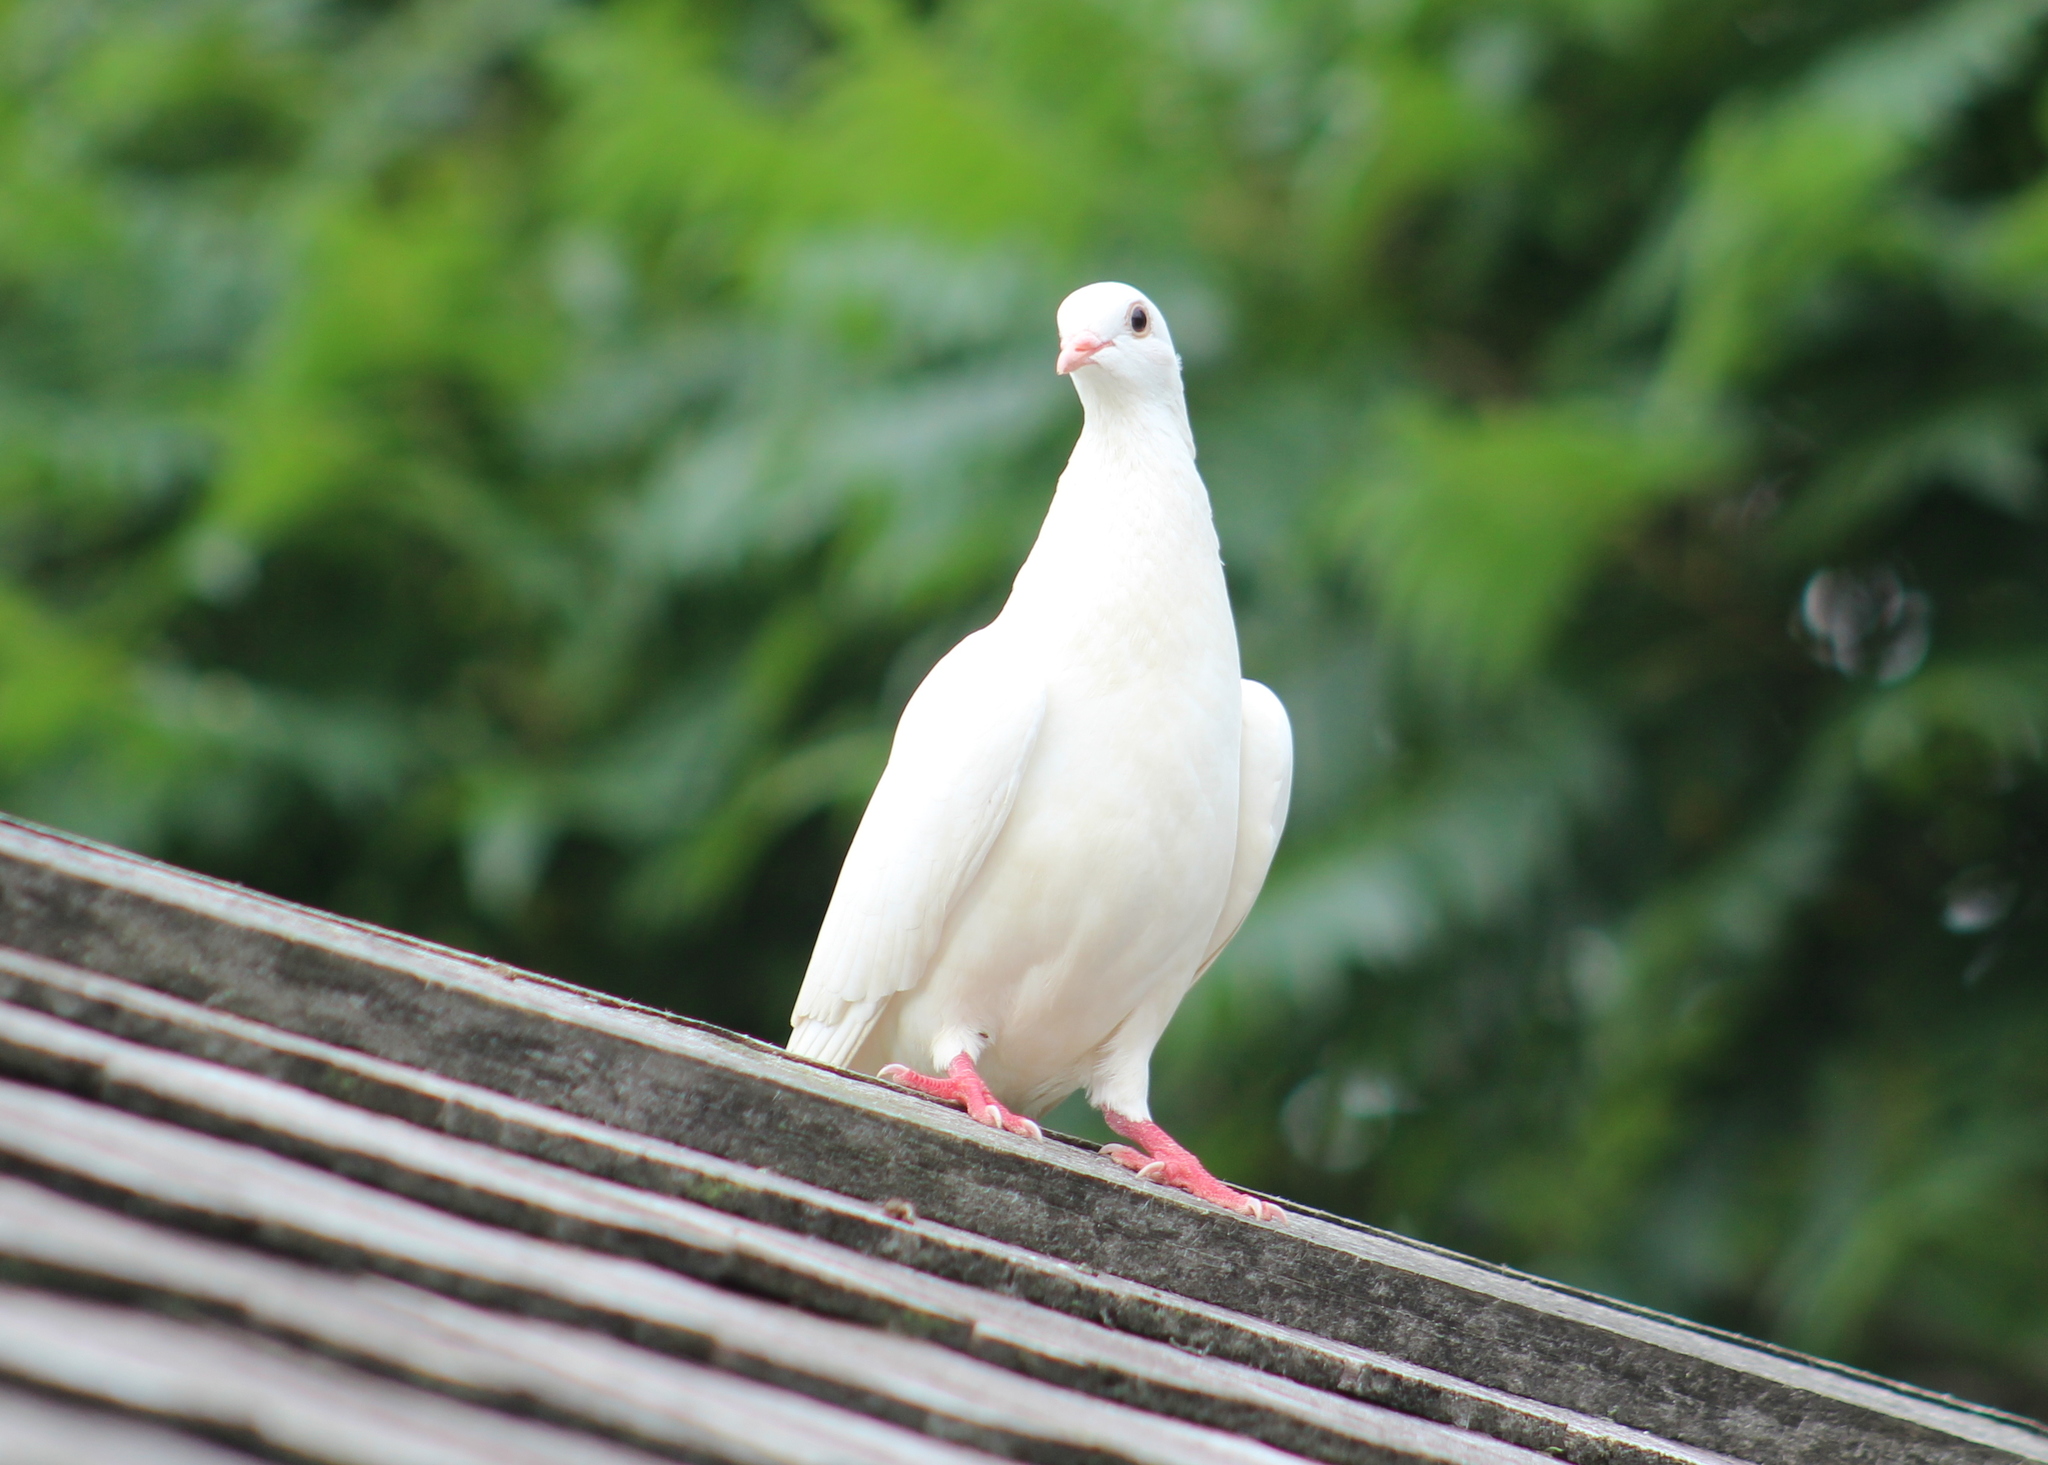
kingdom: Animalia
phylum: Chordata
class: Aves
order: Columbiformes
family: Columbidae
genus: Columba
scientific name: Columba livia
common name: Rock pigeon
